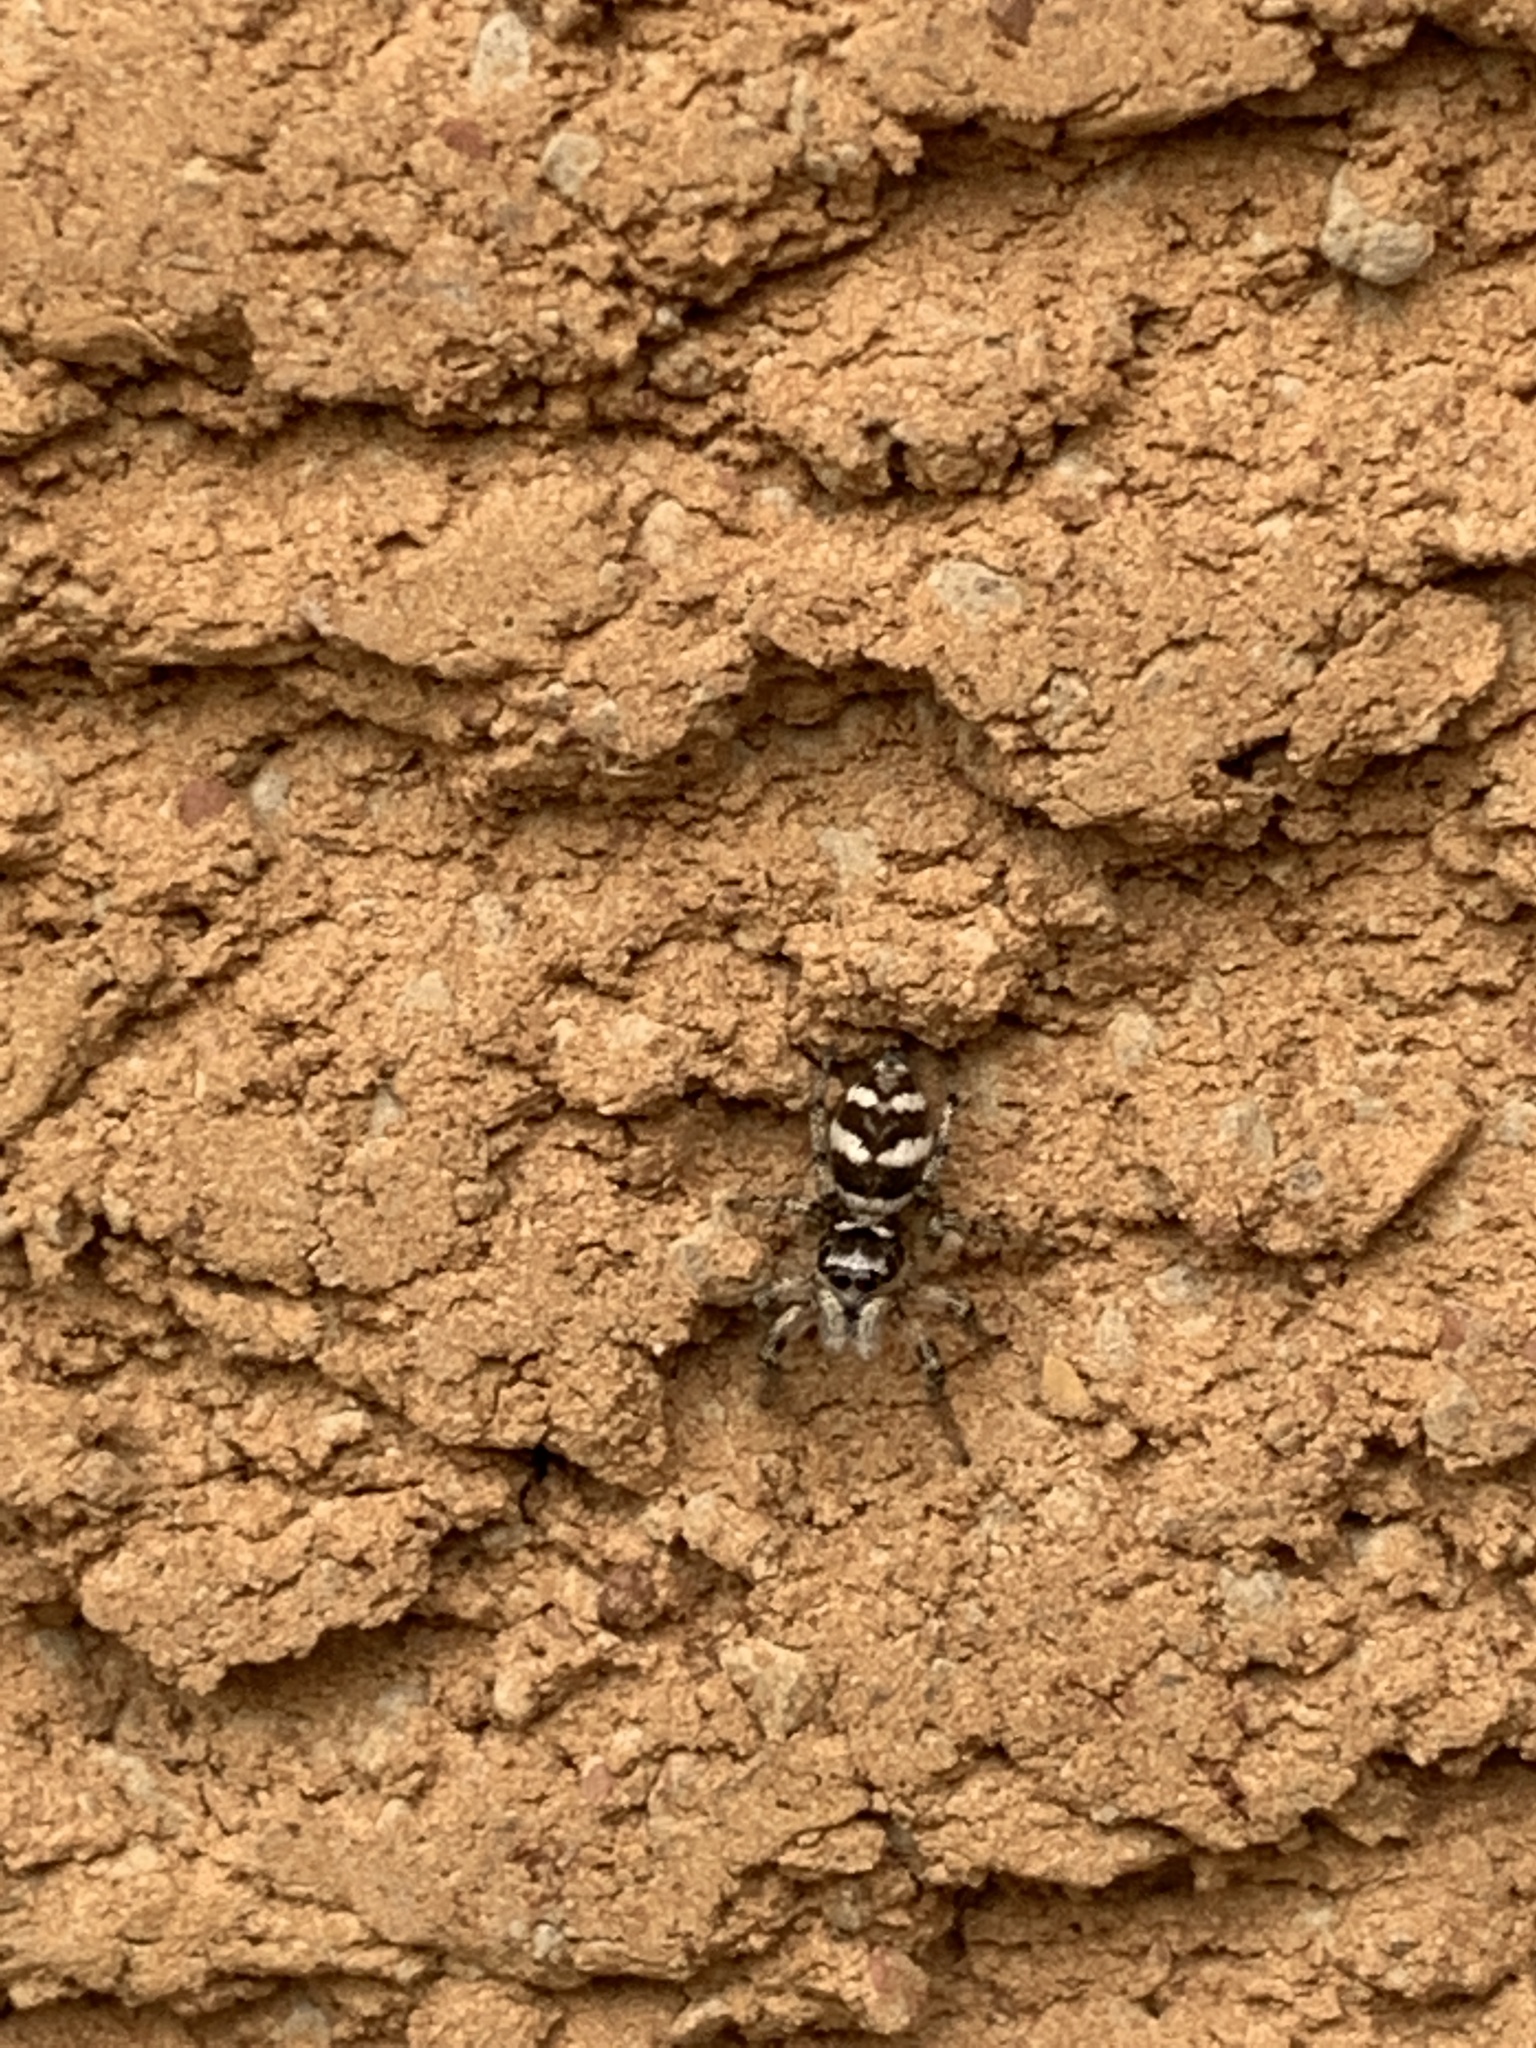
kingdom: Animalia
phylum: Arthropoda
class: Arachnida
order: Araneae
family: Salticidae
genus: Salticus
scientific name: Salticus scenicus
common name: Zebra jumper
